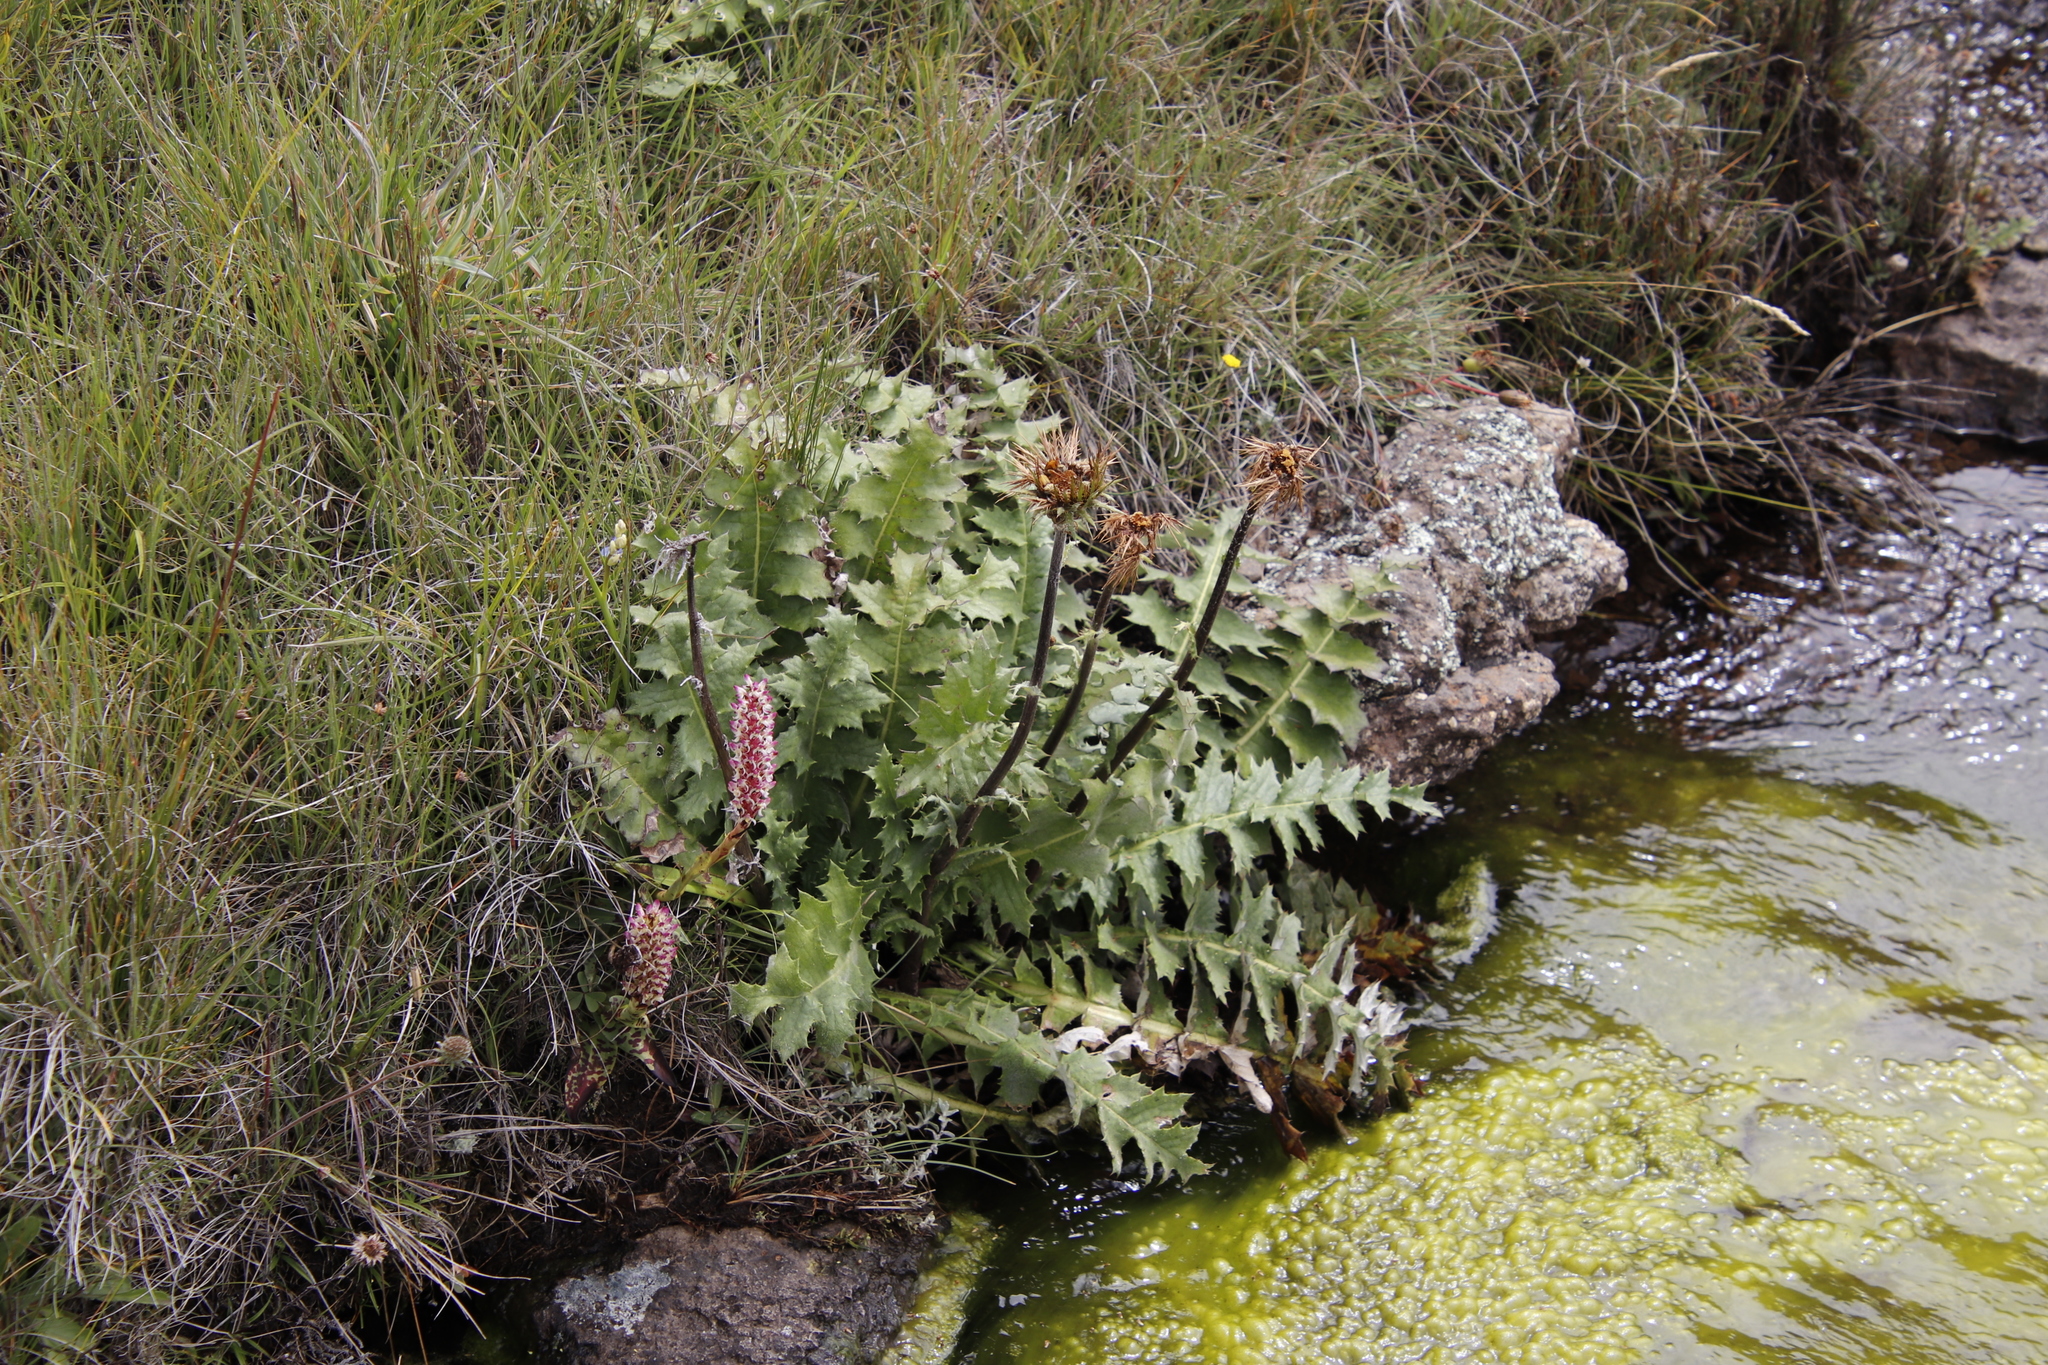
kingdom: Plantae
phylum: Tracheophyta
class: Magnoliopsida
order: Asterales
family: Asteraceae
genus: Berkheya
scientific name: Berkheya multijuga
